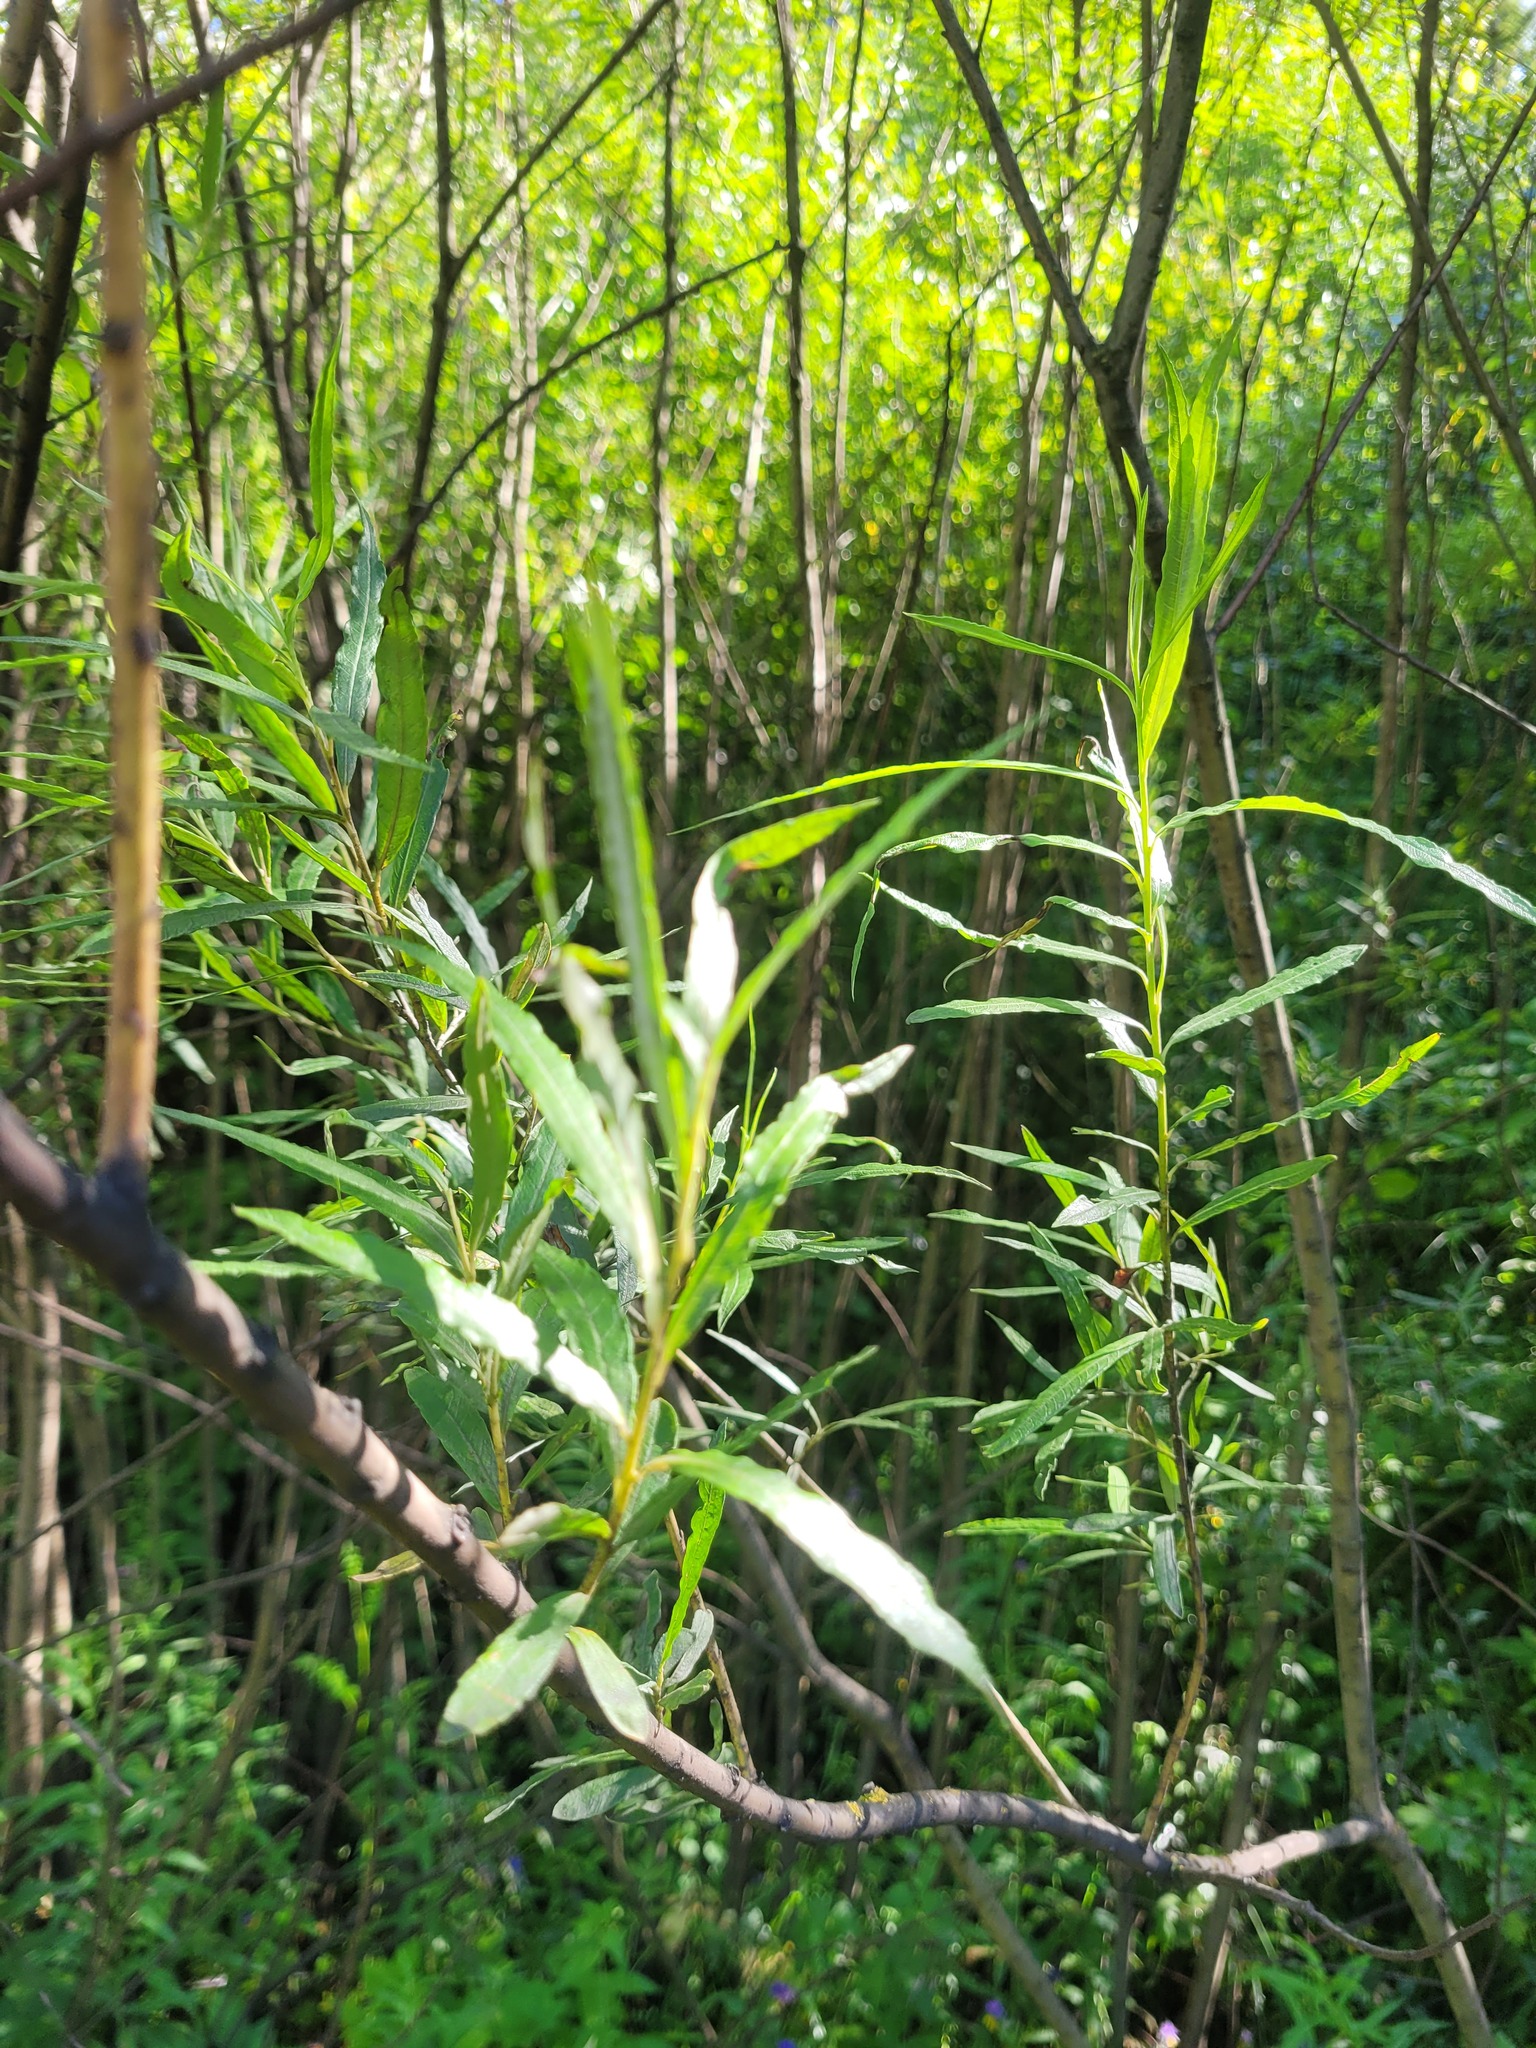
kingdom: Plantae
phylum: Tracheophyta
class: Magnoliopsida
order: Malpighiales
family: Salicaceae
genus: Salix
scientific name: Salix viminalis
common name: Osier
